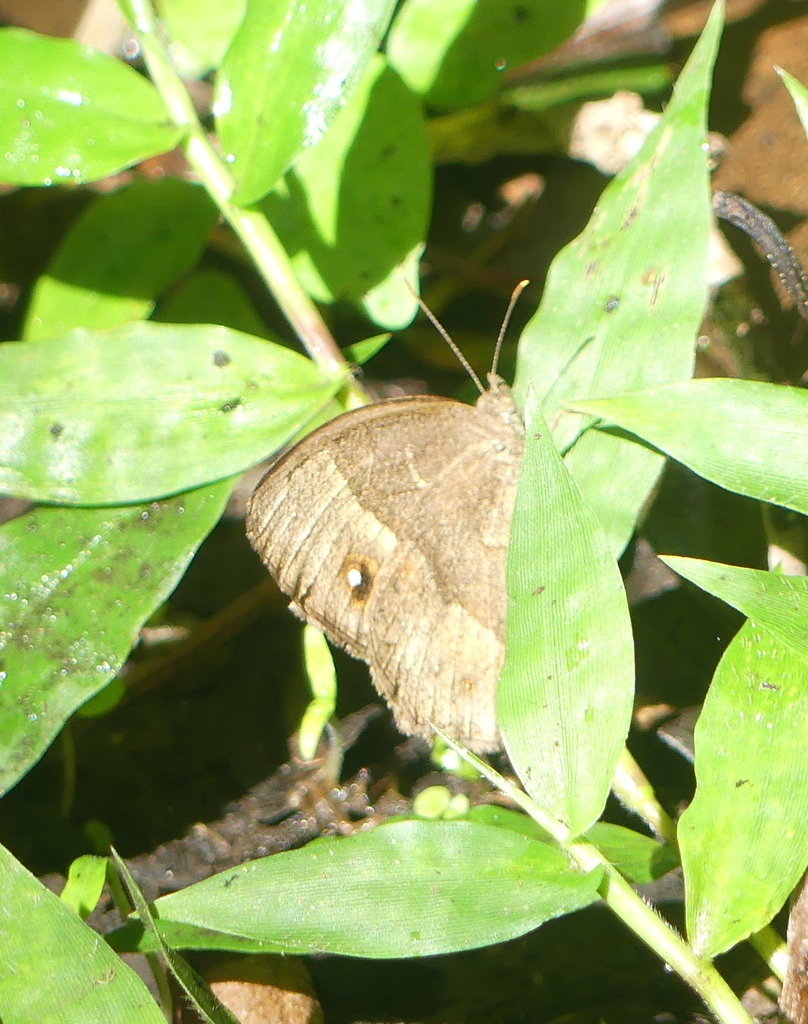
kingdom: Animalia
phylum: Arthropoda
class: Insecta
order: Lepidoptera
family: Nymphalidae
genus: Mycalesis
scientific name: Mycalesis anynana
